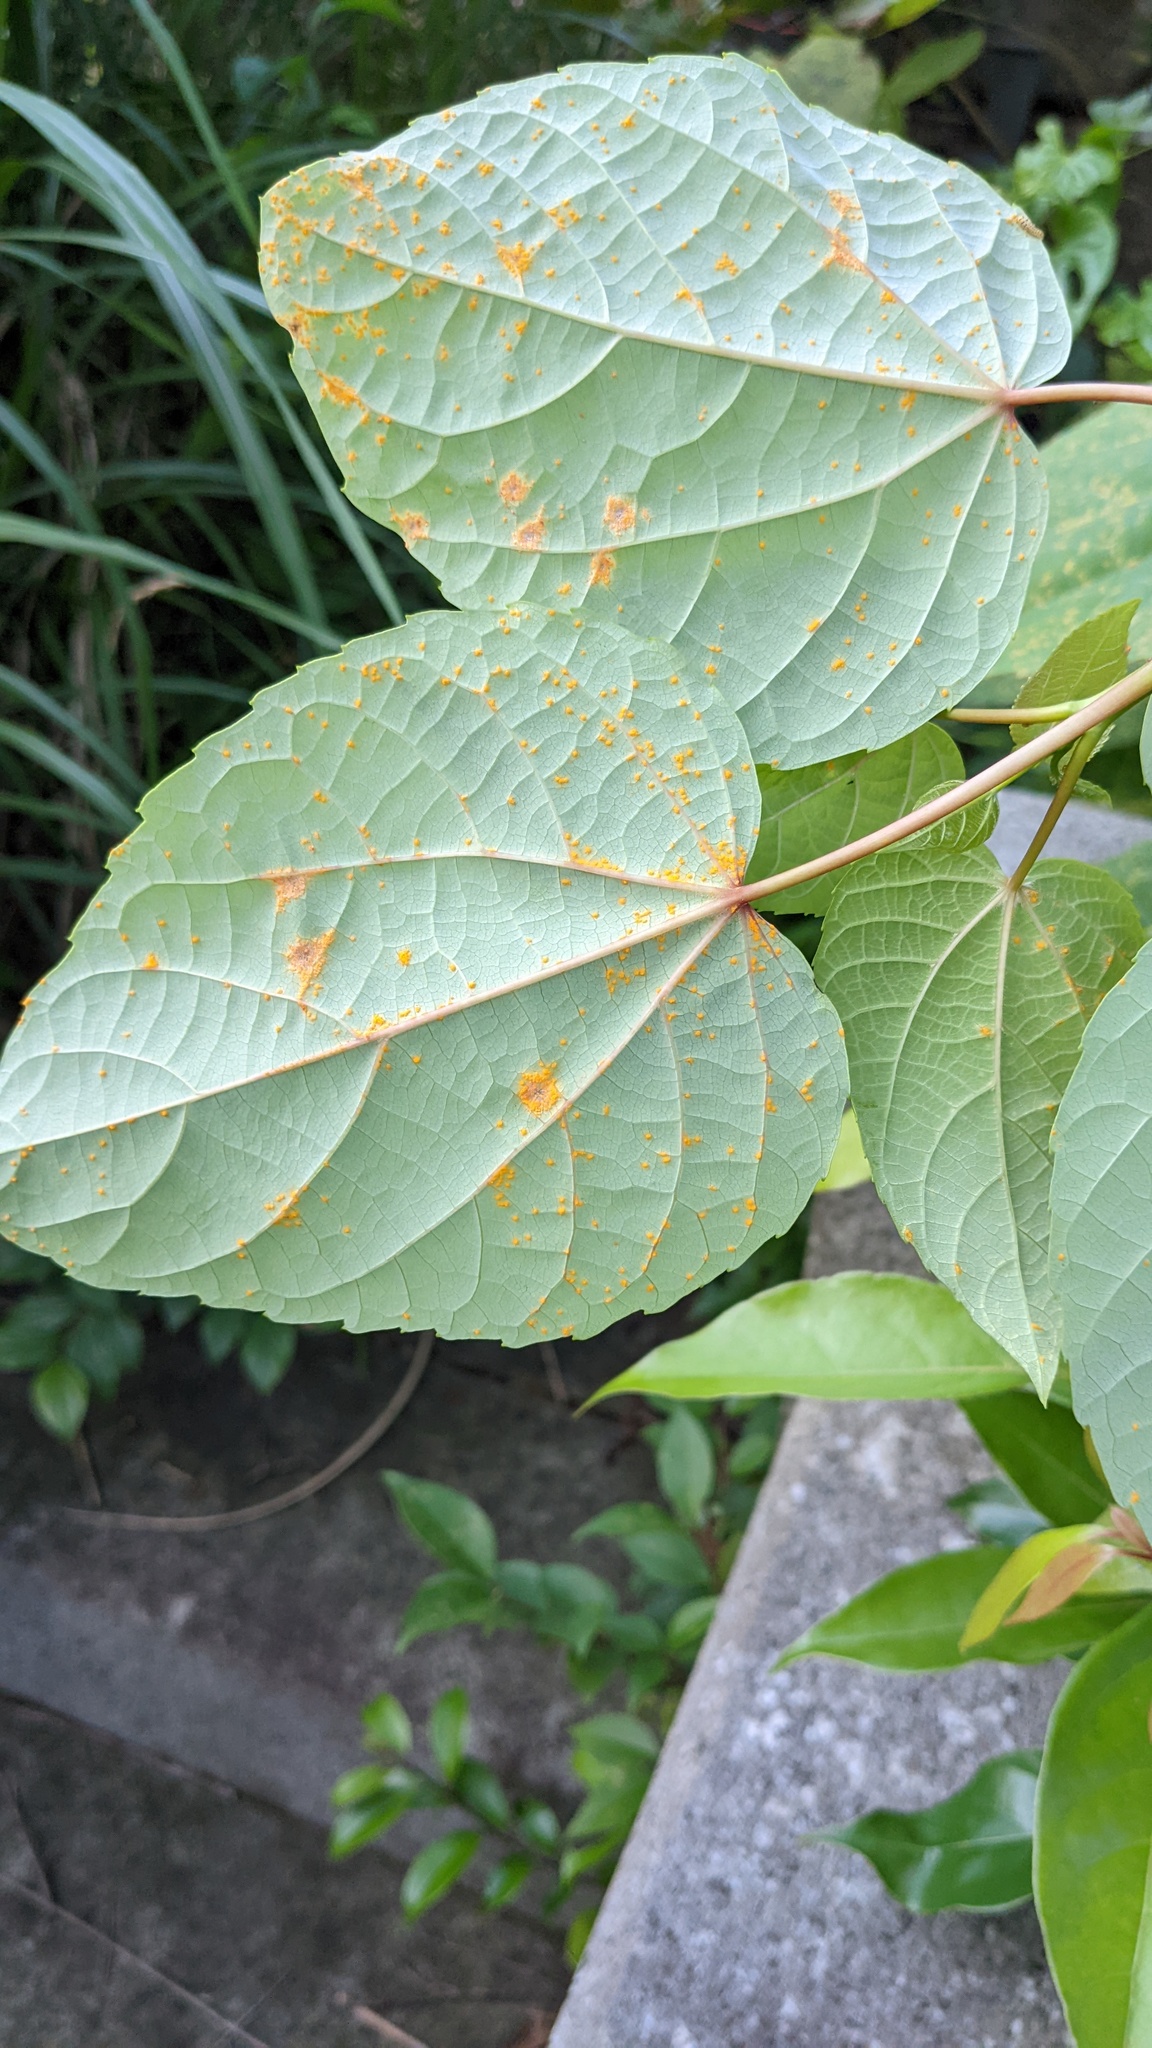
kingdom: Fungi
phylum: Basidiomycota
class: Pucciniomycetes
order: Pucciniales
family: Melampsoraceae
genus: Melampsora
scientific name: Melampsora
